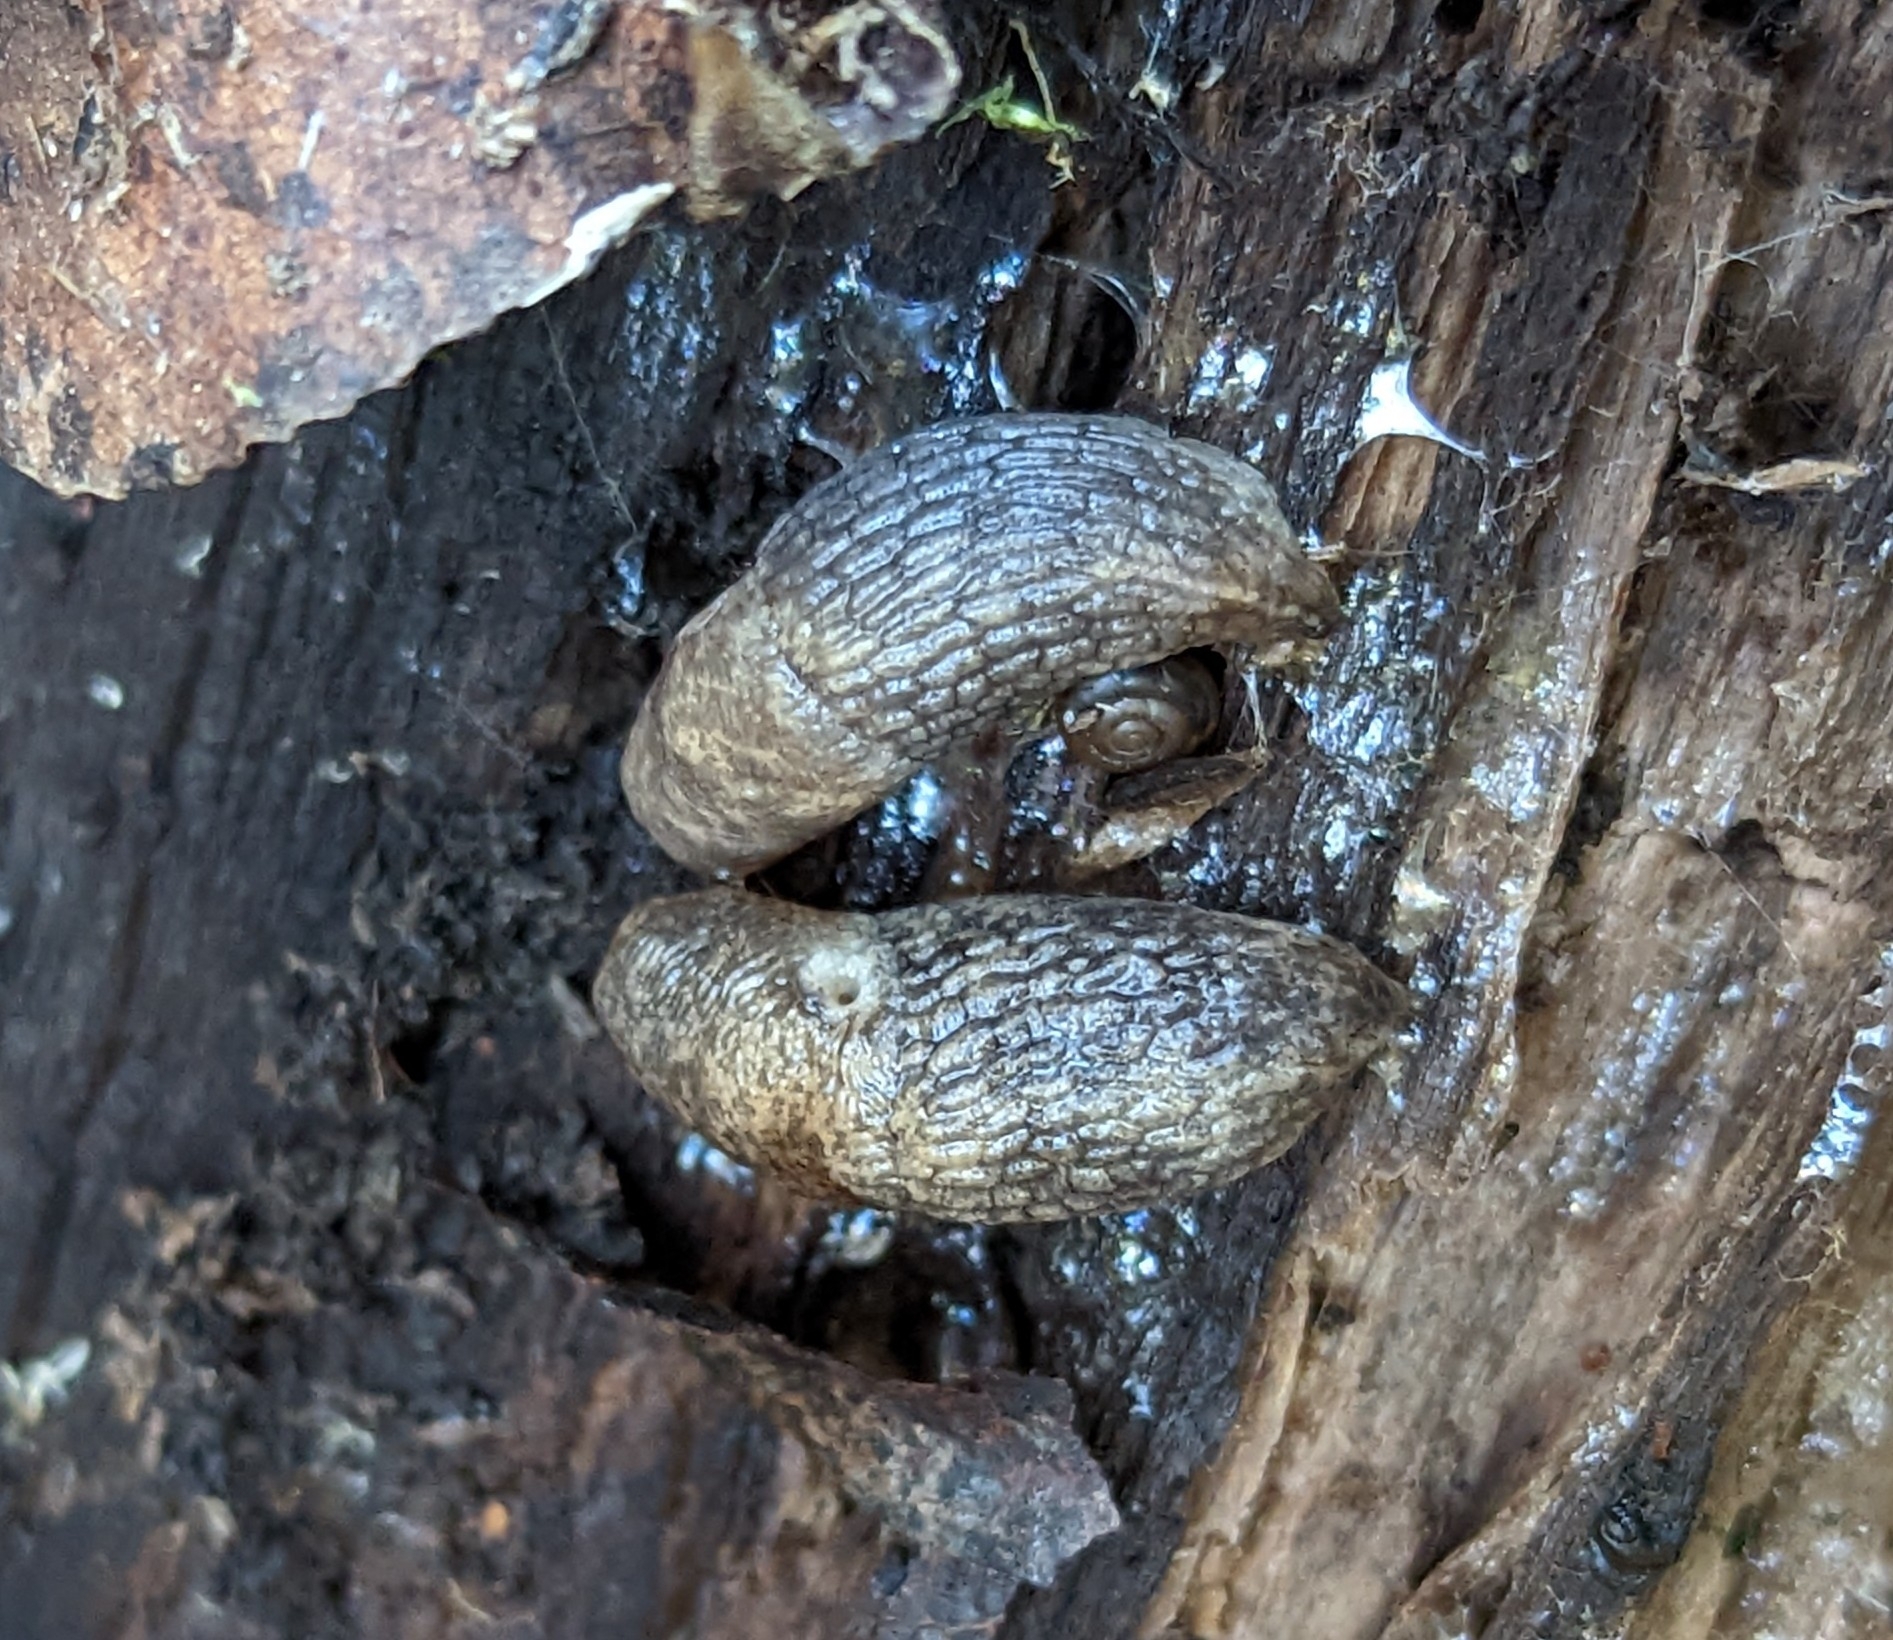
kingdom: Animalia
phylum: Mollusca
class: Gastropoda
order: Stylommatophora
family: Agriolimacidae
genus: Deroceras
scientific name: Deroceras reticulatum
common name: Gray field slug
